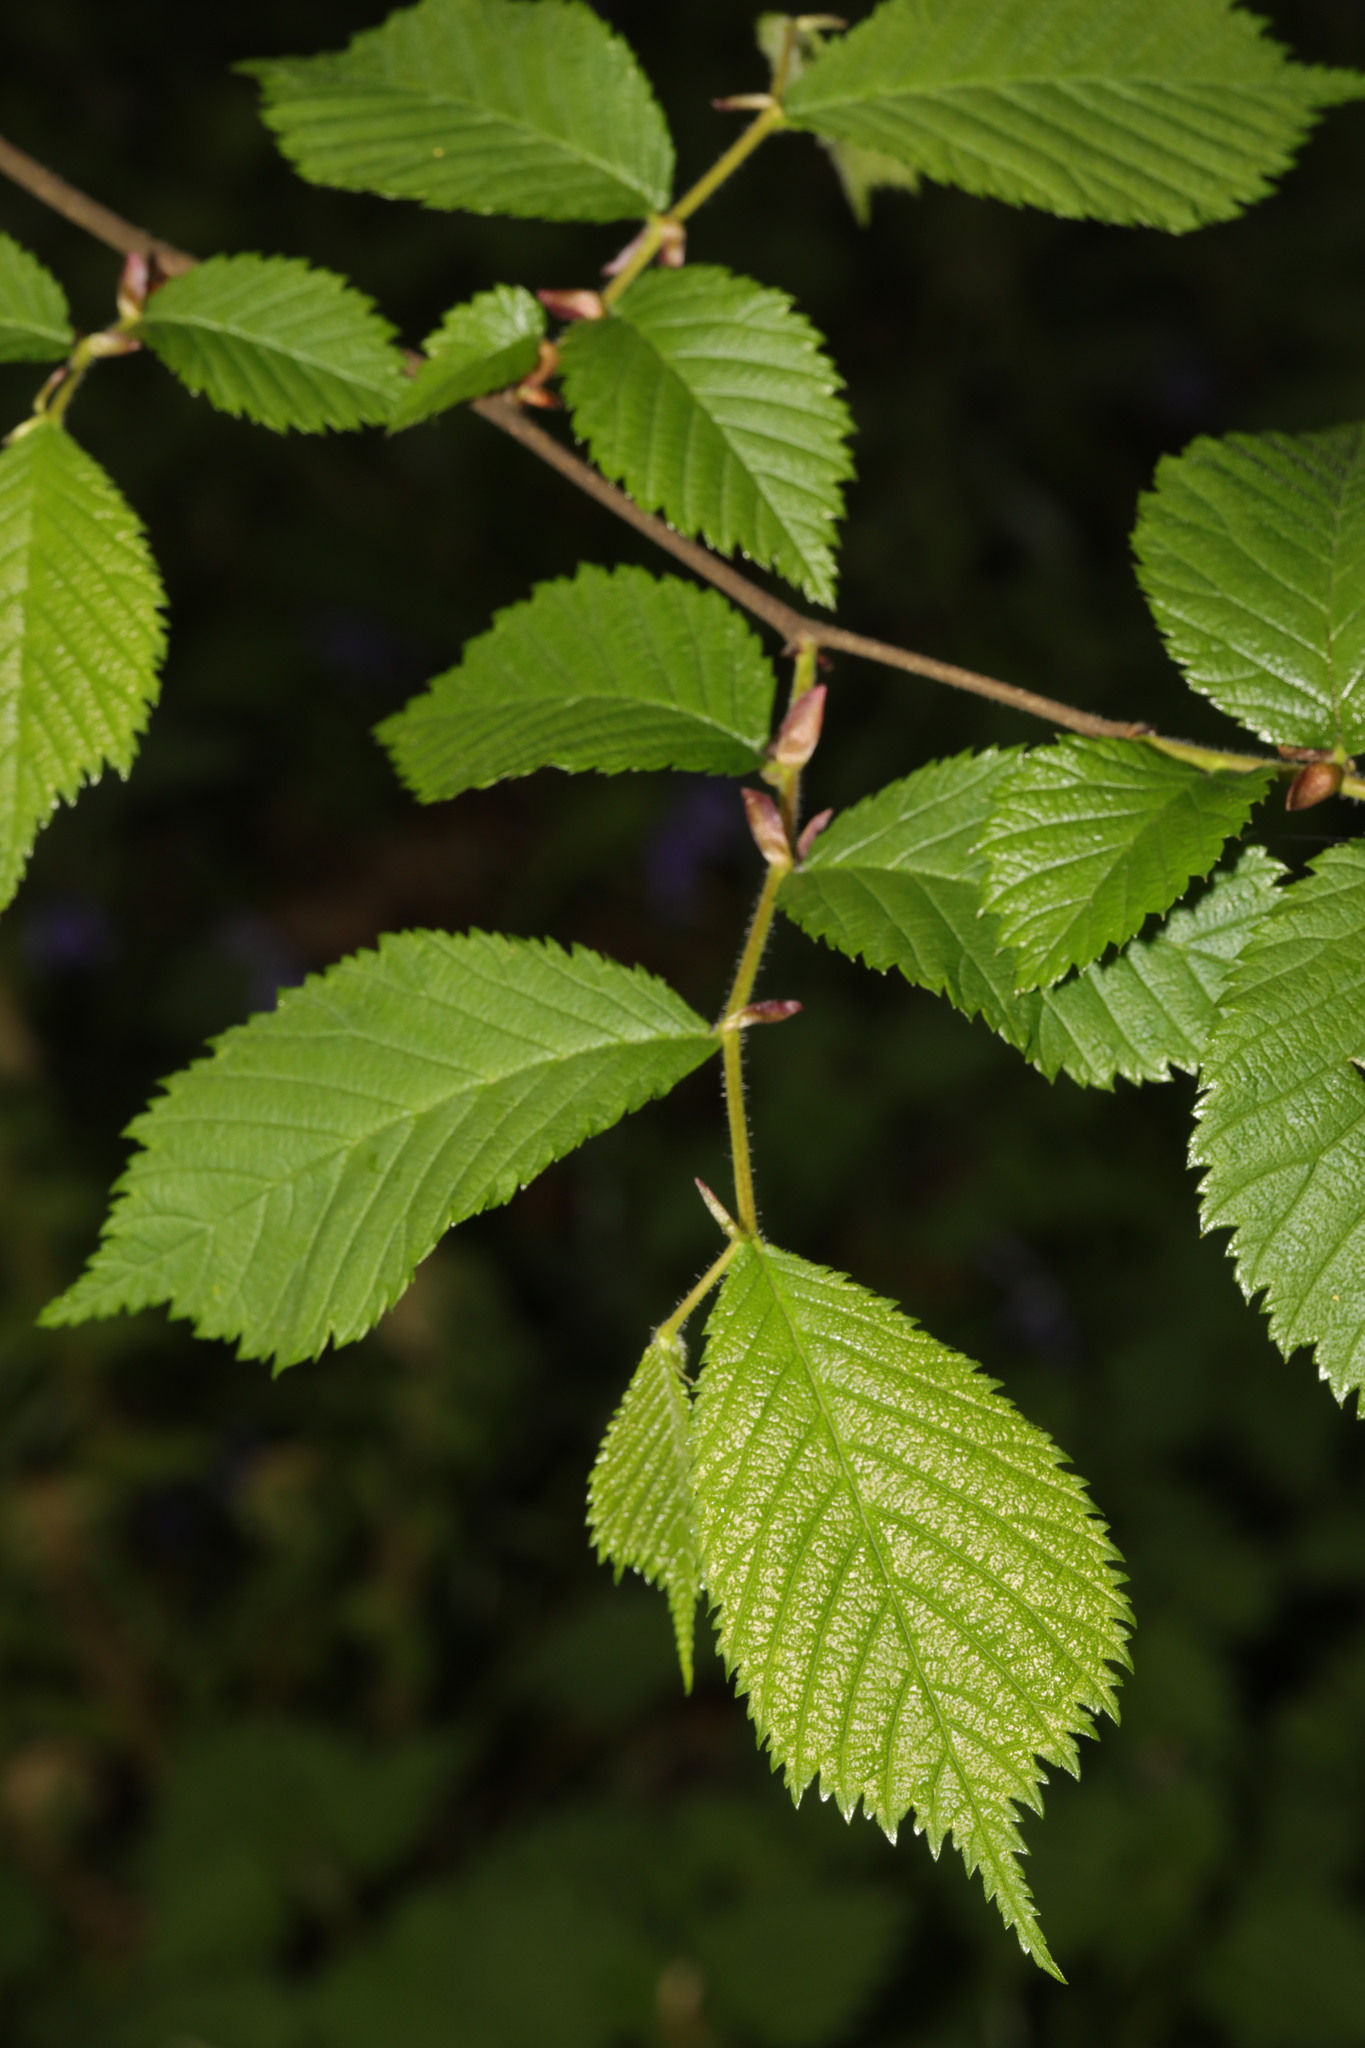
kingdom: Plantae
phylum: Tracheophyta
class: Magnoliopsida
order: Rosales
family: Ulmaceae
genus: Ulmus
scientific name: Ulmus glabra
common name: Wych elm
